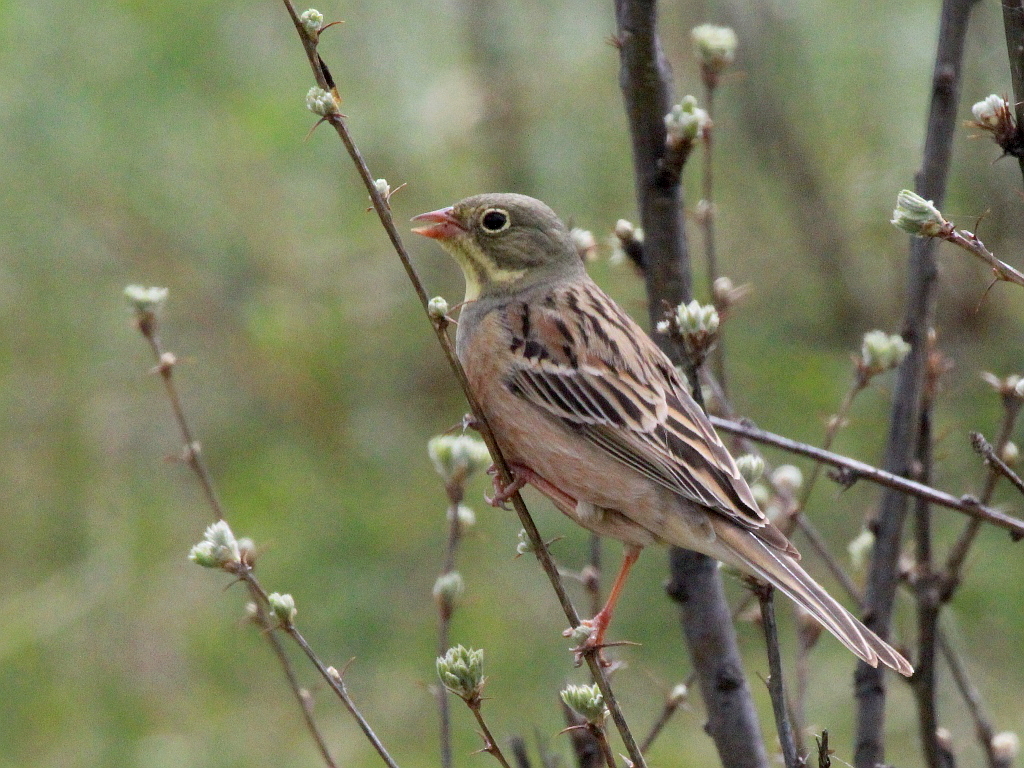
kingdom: Animalia
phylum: Chordata
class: Aves
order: Passeriformes
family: Emberizidae
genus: Emberiza
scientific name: Emberiza hortulana
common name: Ortolan bunting
